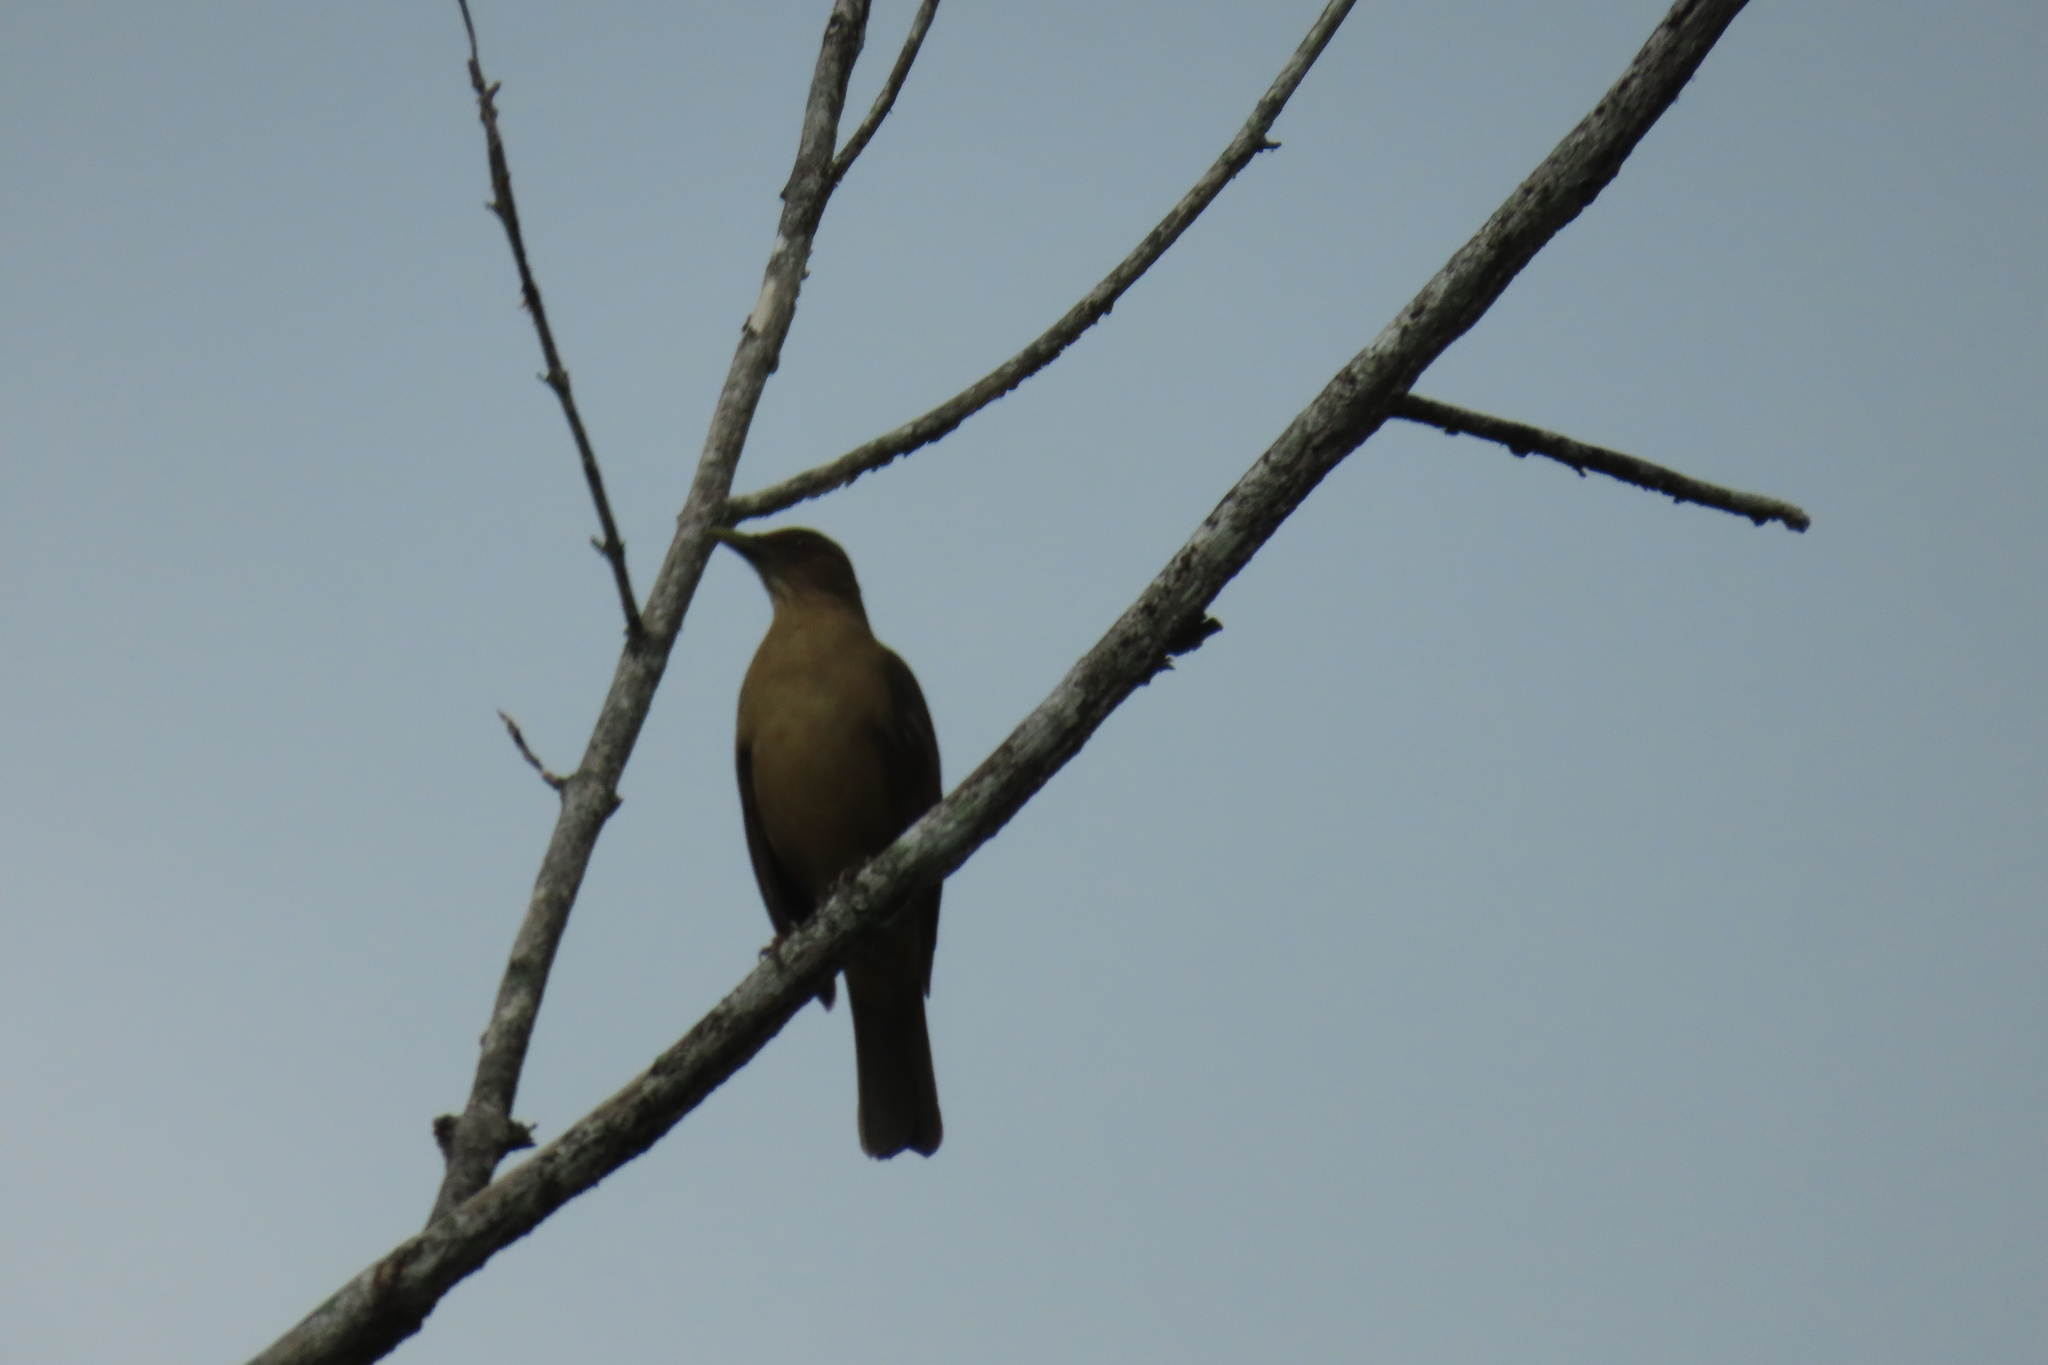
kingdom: Animalia
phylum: Chordata
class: Aves
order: Passeriformes
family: Turdidae
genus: Turdus
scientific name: Turdus grayi
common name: Clay-colored thrush
